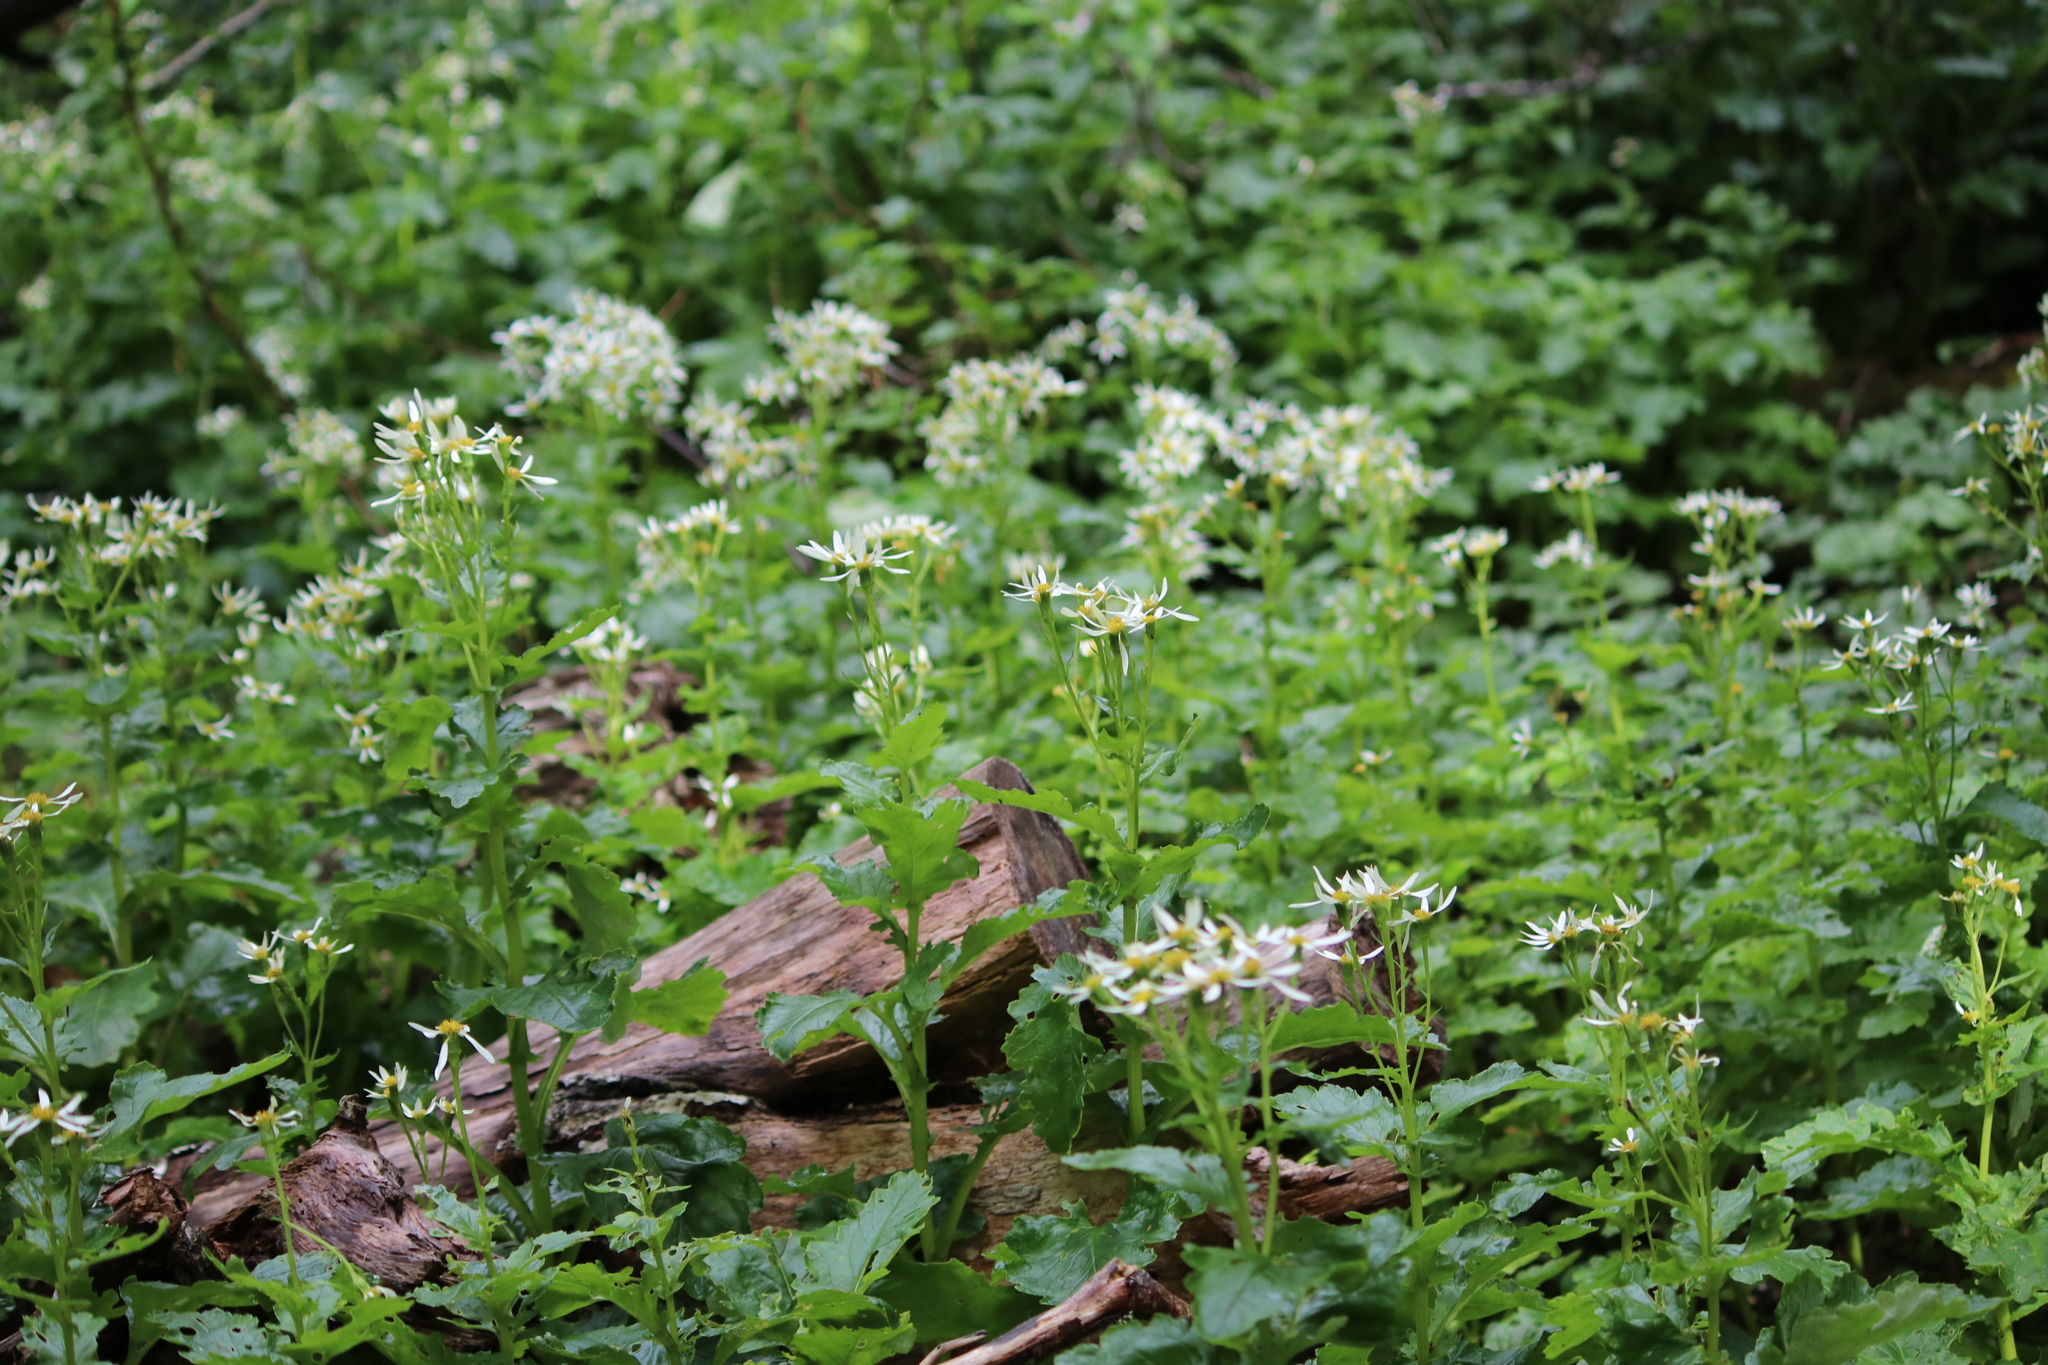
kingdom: Plantae
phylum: Tracheophyta
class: Magnoliopsida
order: Asterales
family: Asteraceae
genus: Iocenes
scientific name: Iocenes virens
